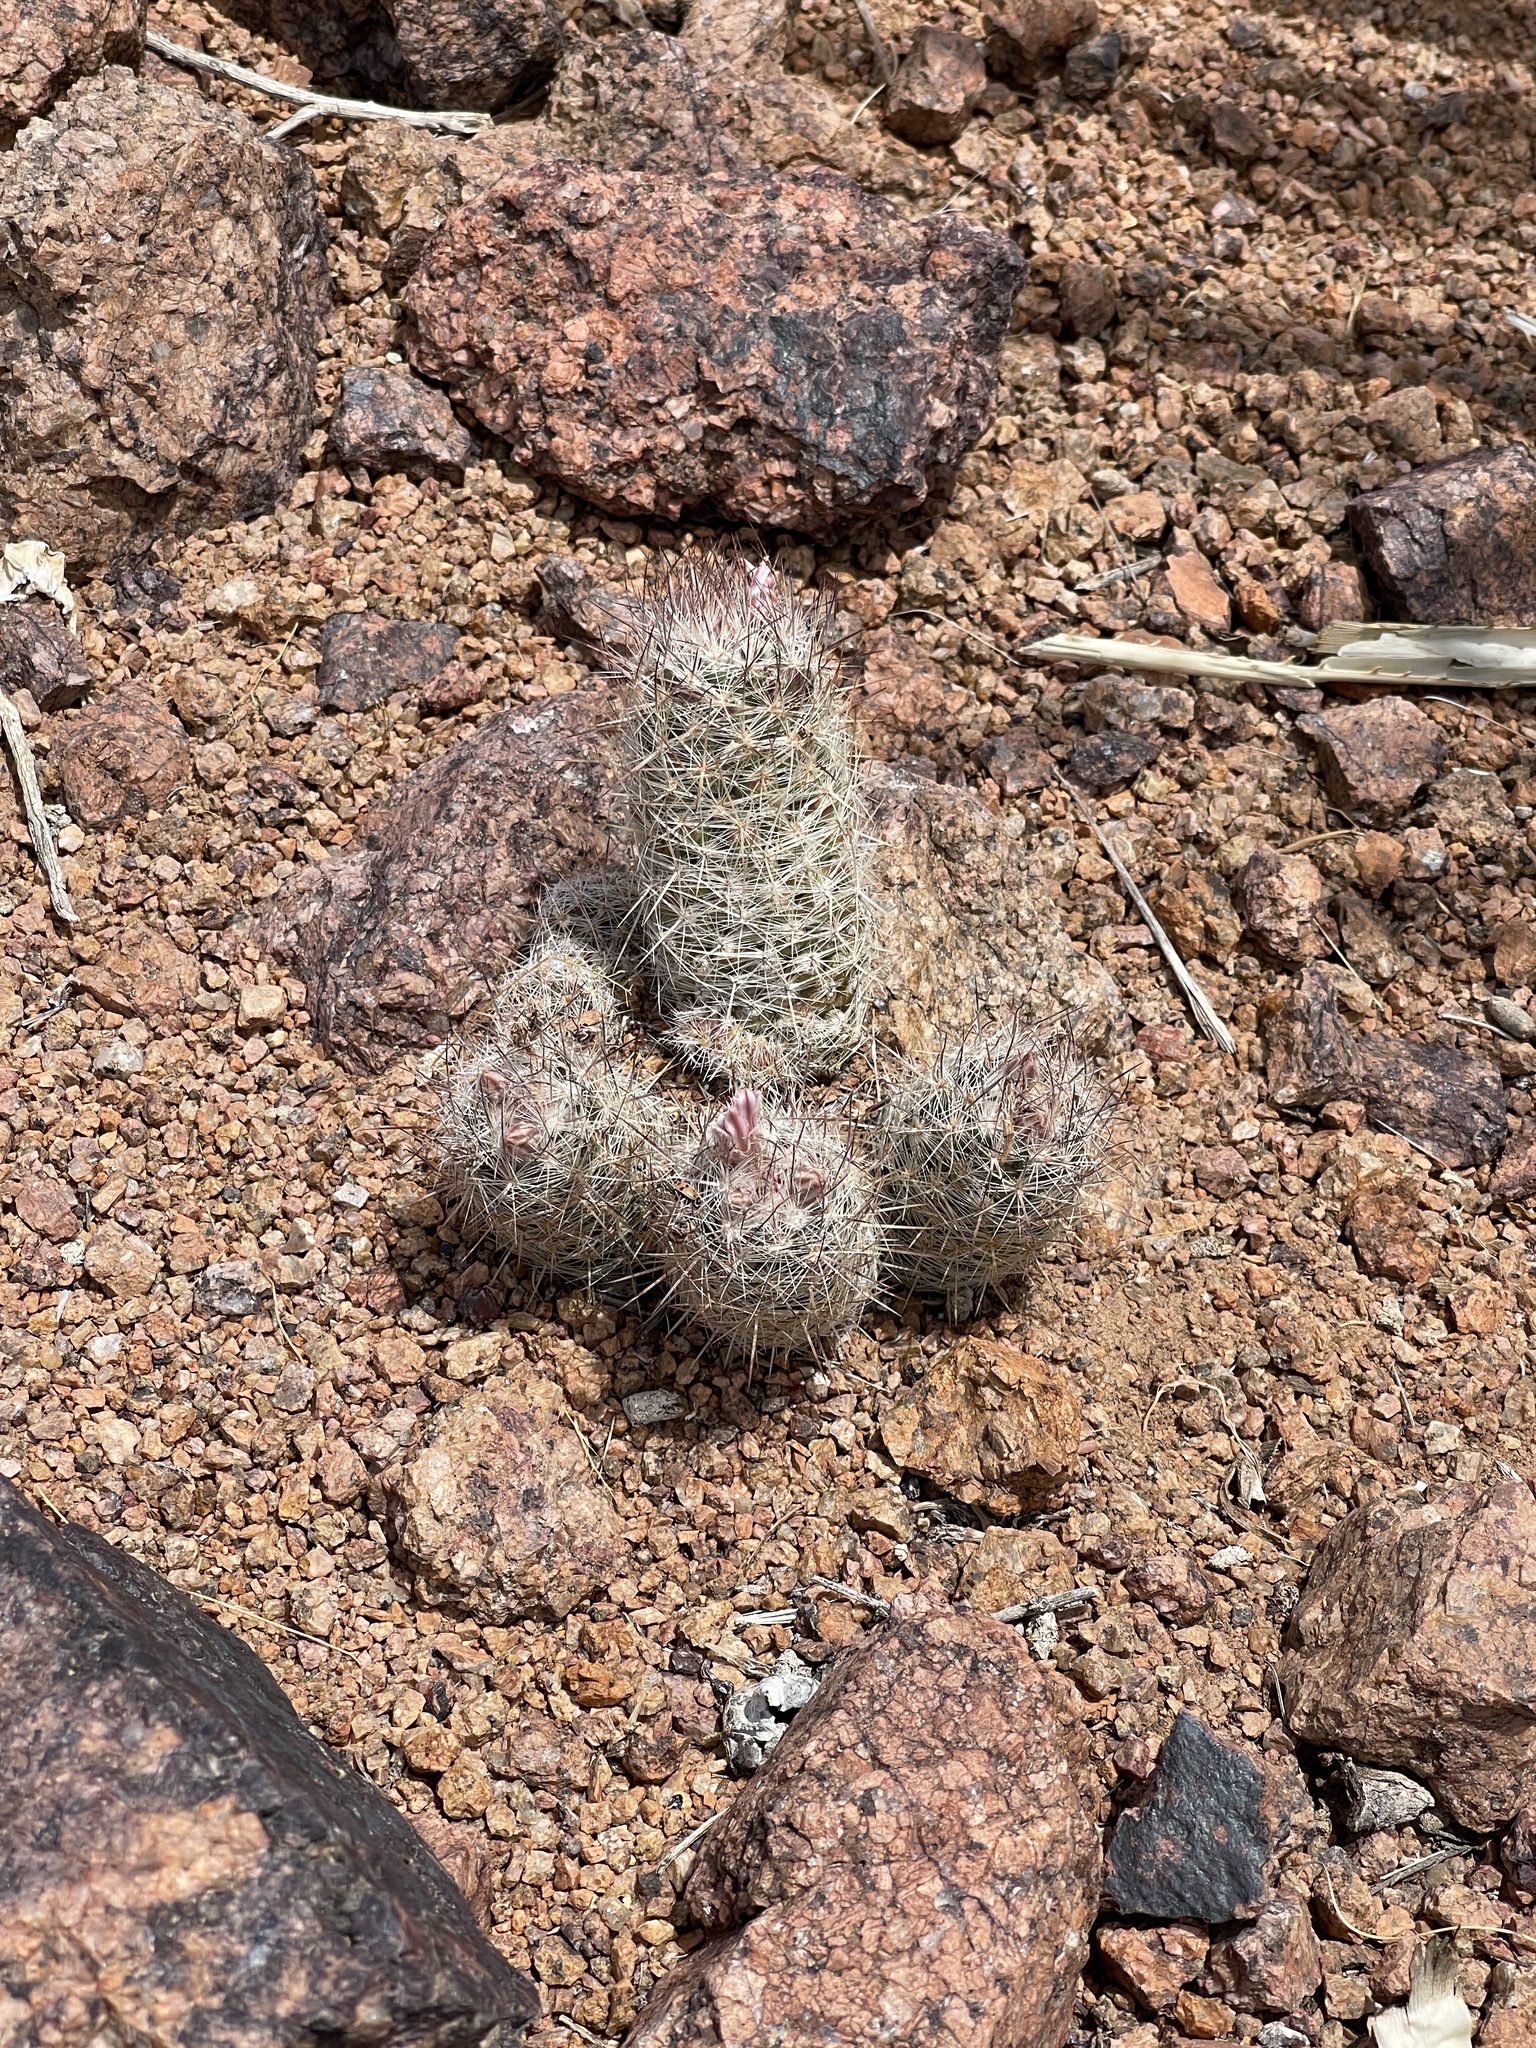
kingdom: Plantae
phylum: Tracheophyta
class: Magnoliopsida
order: Caryophyllales
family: Cactaceae
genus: Pelecyphora
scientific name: Pelecyphora tuberculosa
